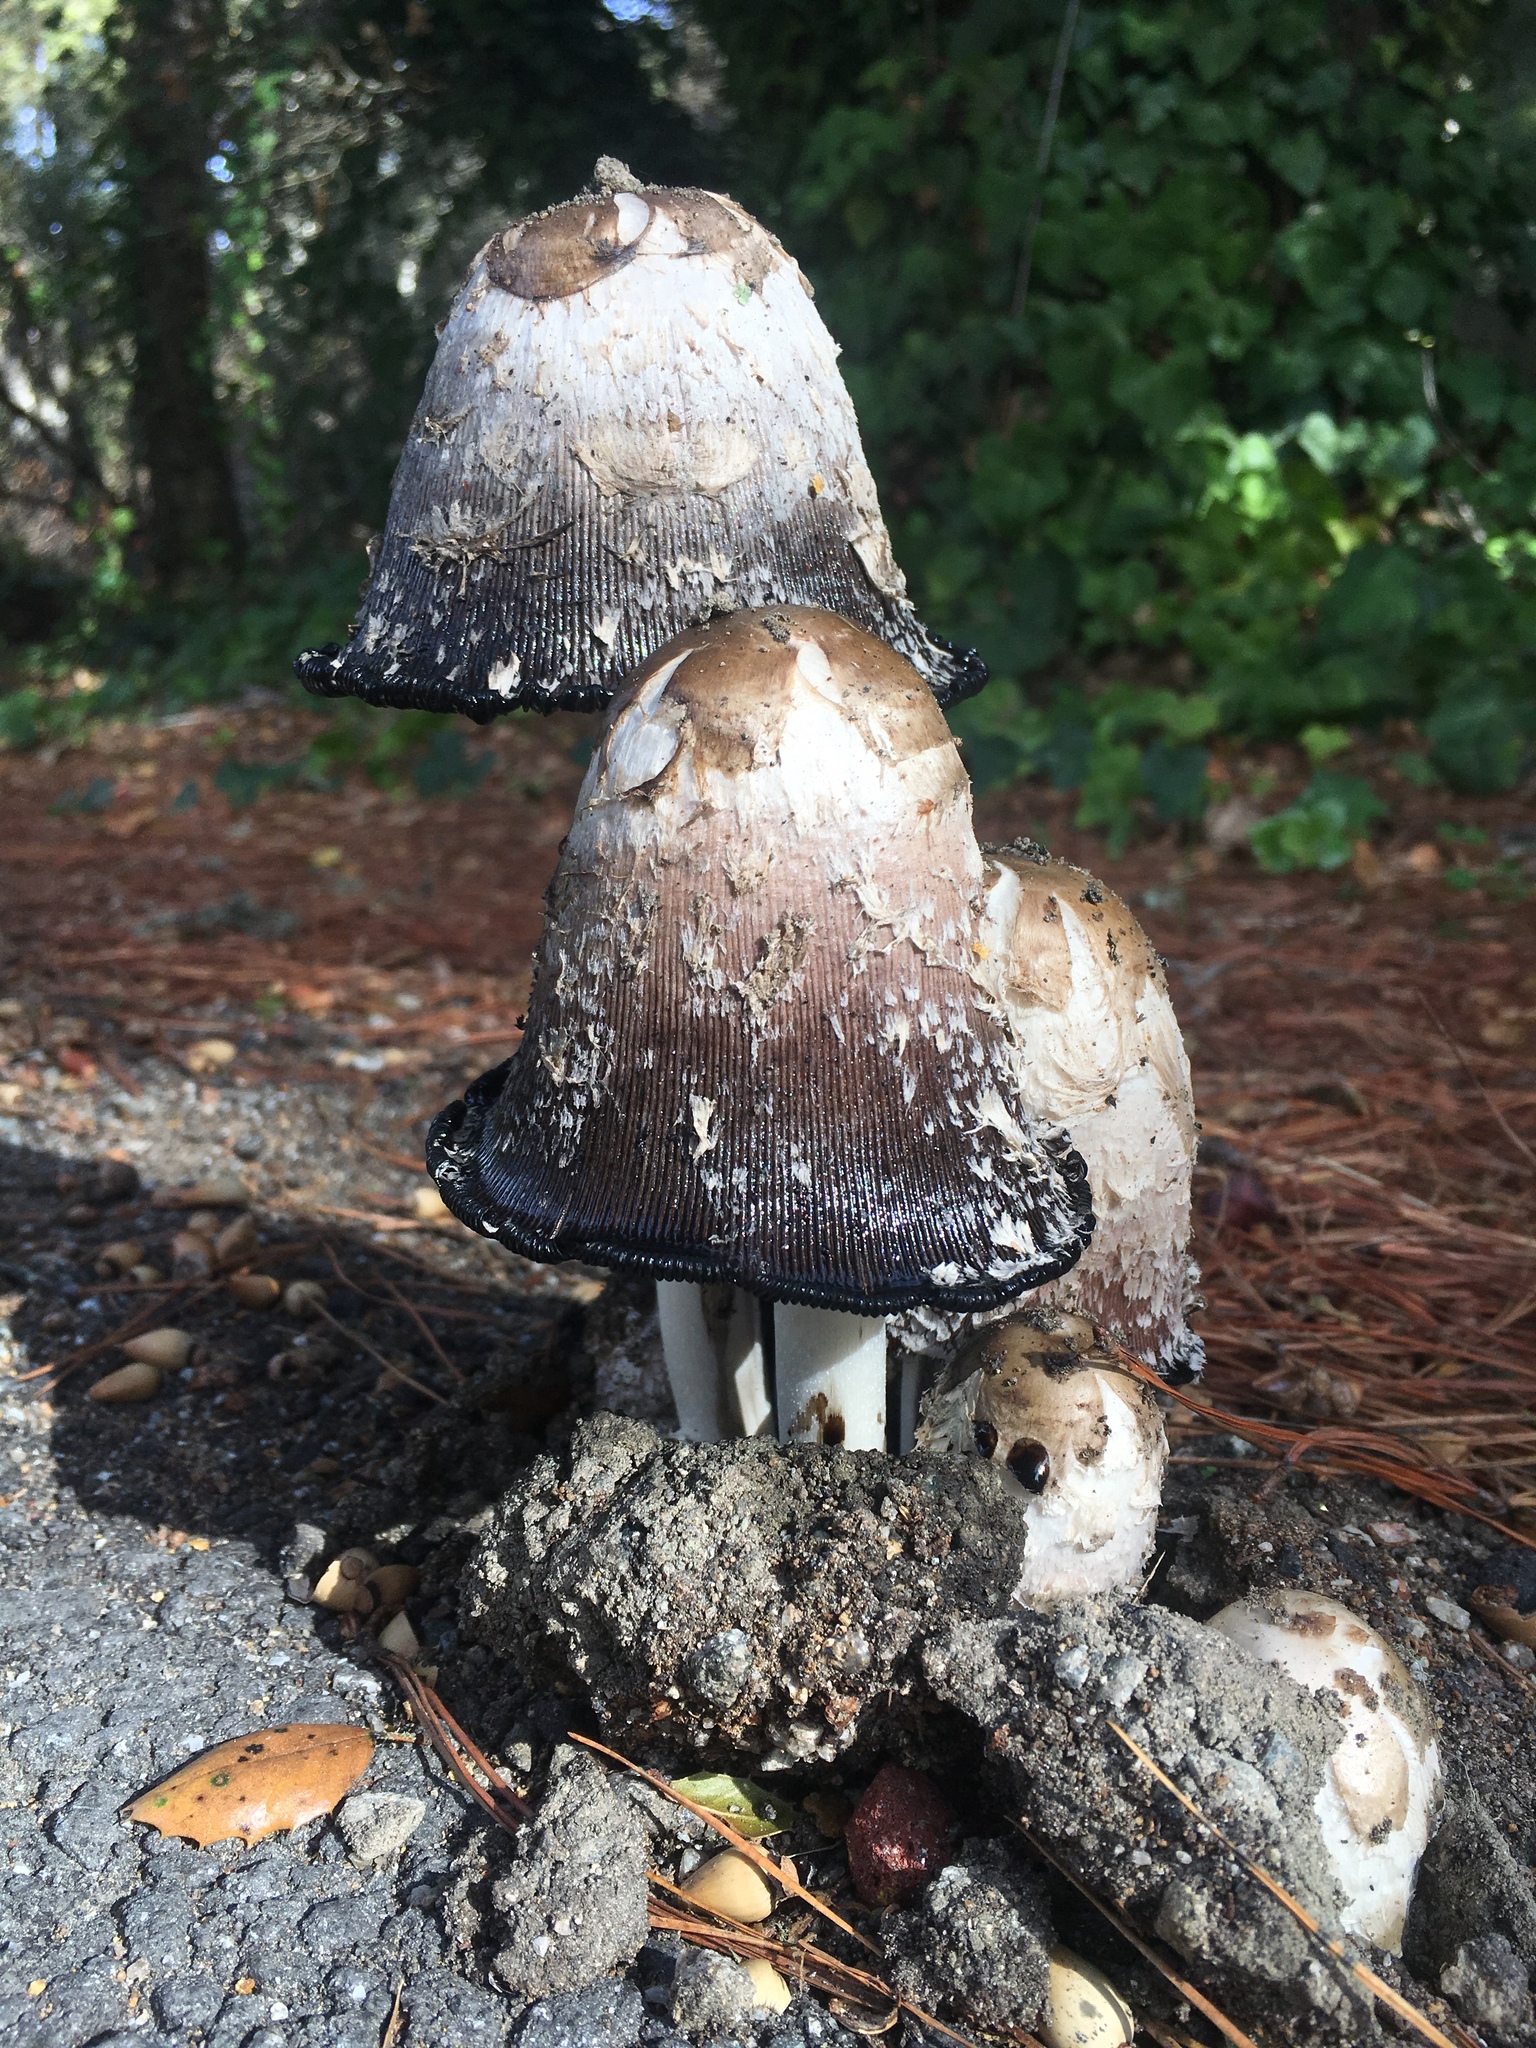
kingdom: Fungi
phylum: Basidiomycota
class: Agaricomycetes
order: Agaricales
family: Agaricaceae
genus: Coprinus
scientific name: Coprinus comatus
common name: Lawyer's wig
